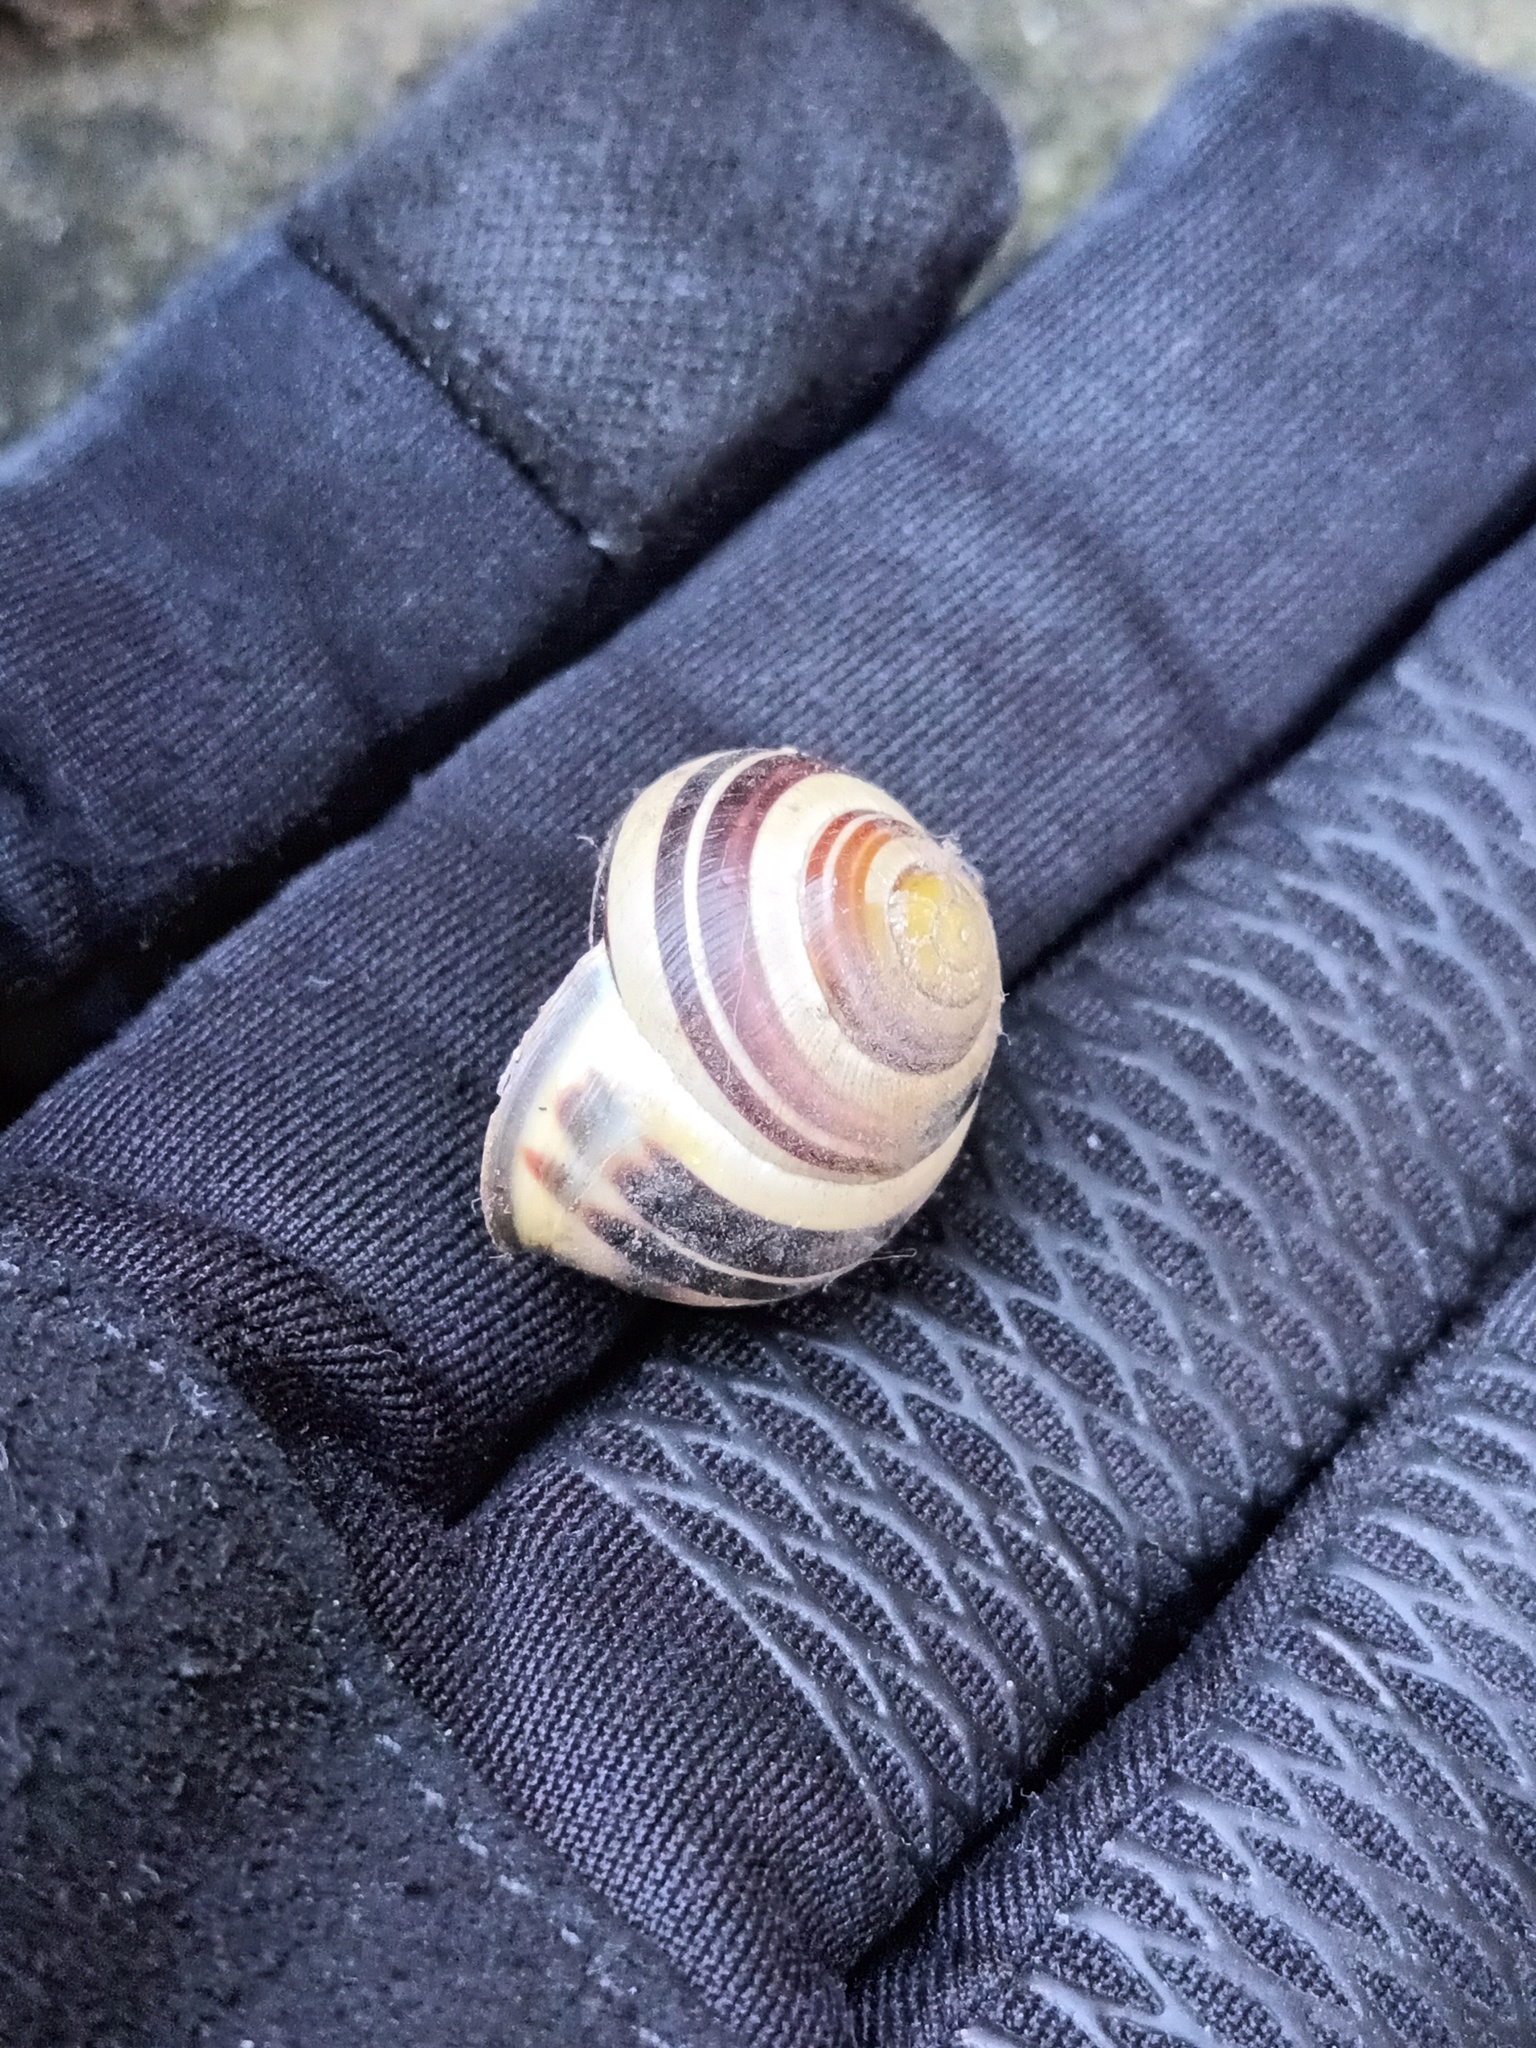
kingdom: Animalia
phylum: Mollusca
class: Gastropoda
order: Stylommatophora
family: Helicidae
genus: Cepaea
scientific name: Cepaea nemoralis
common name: Grovesnail
